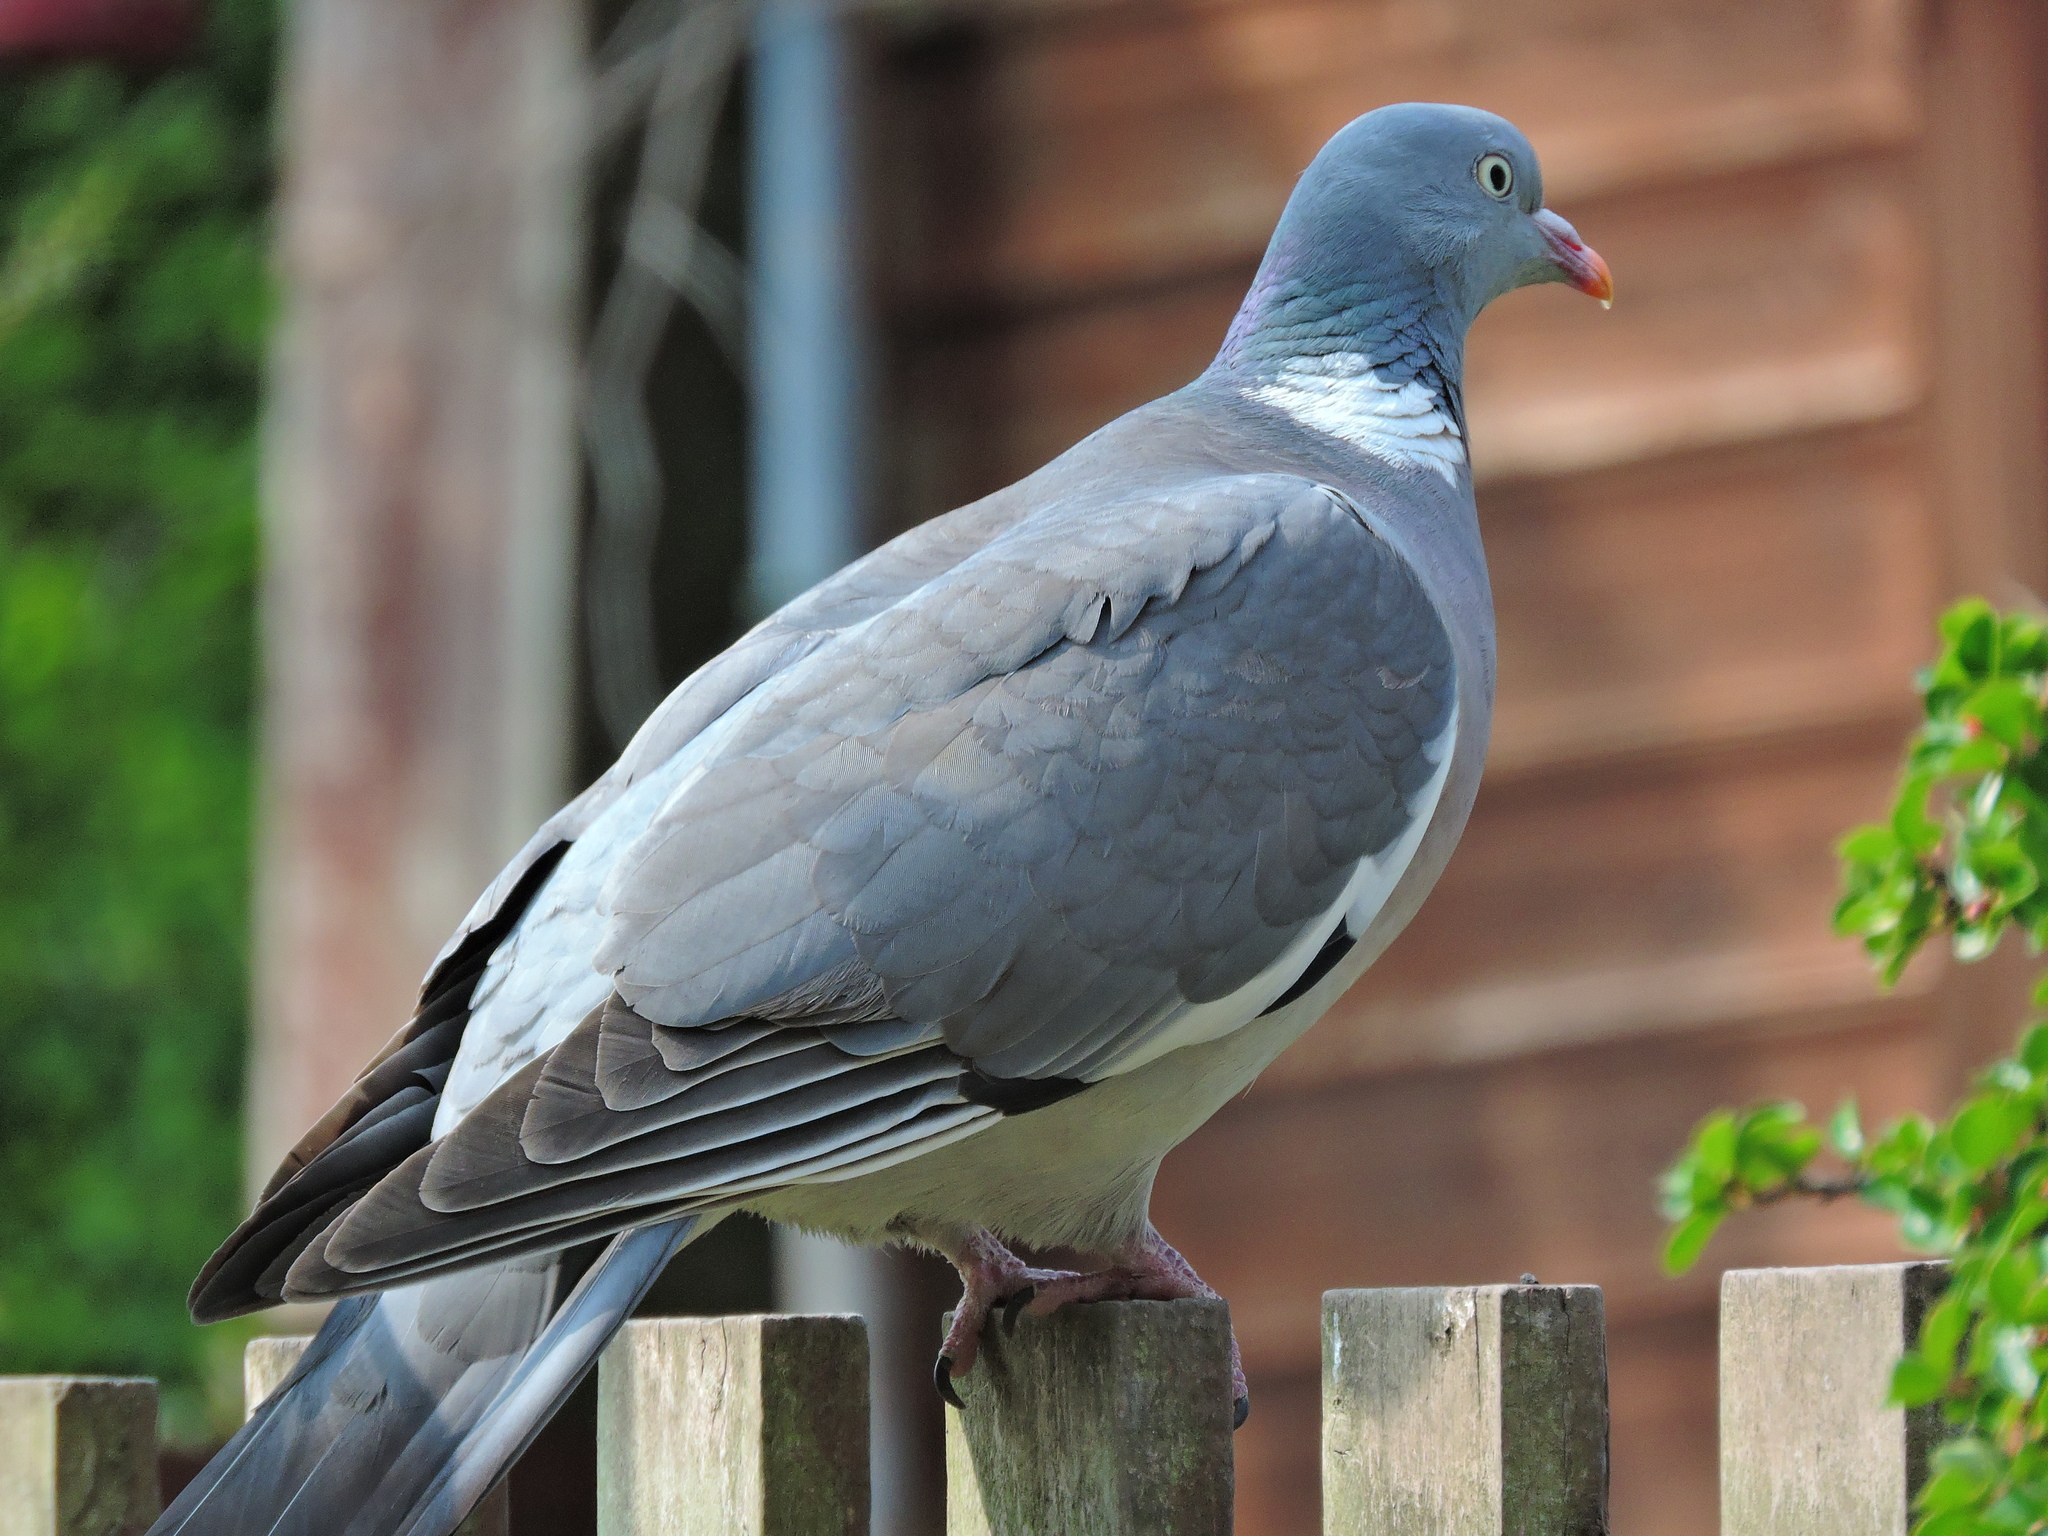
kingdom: Animalia
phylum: Chordata
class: Aves
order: Columbiformes
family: Columbidae
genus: Columba
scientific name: Columba palumbus
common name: Common wood pigeon
